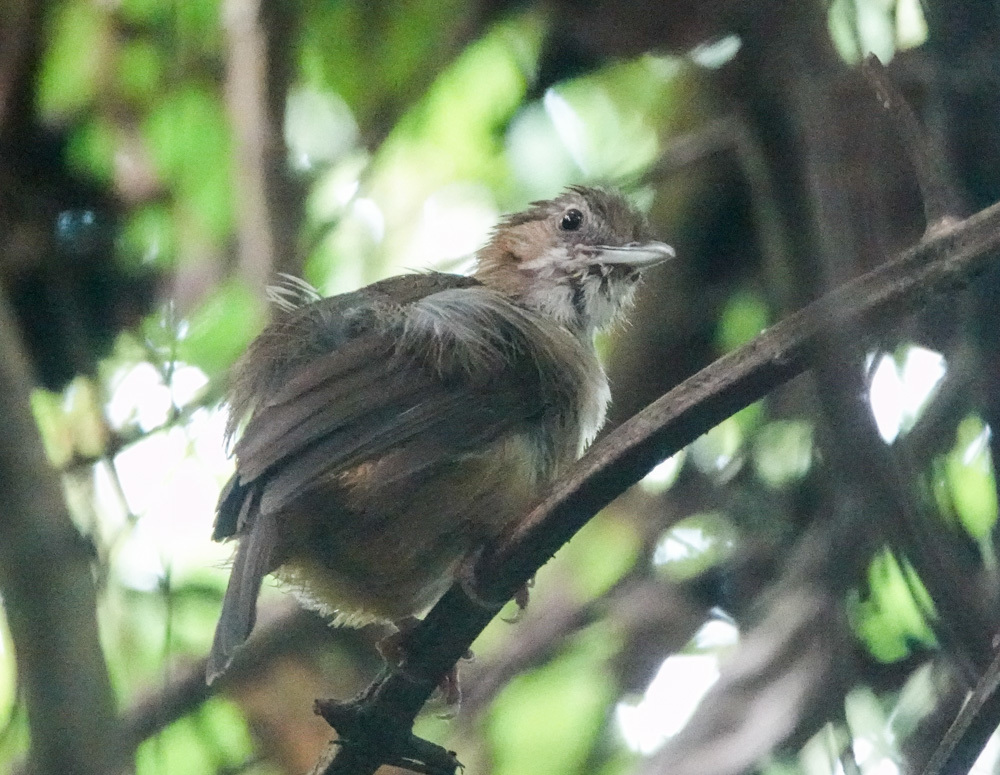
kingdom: Animalia
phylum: Chordata
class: Aves
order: Passeriformes
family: Pellorneidae
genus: Malacocincla
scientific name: Malacocincla abbotti
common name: Abbott's babbler
